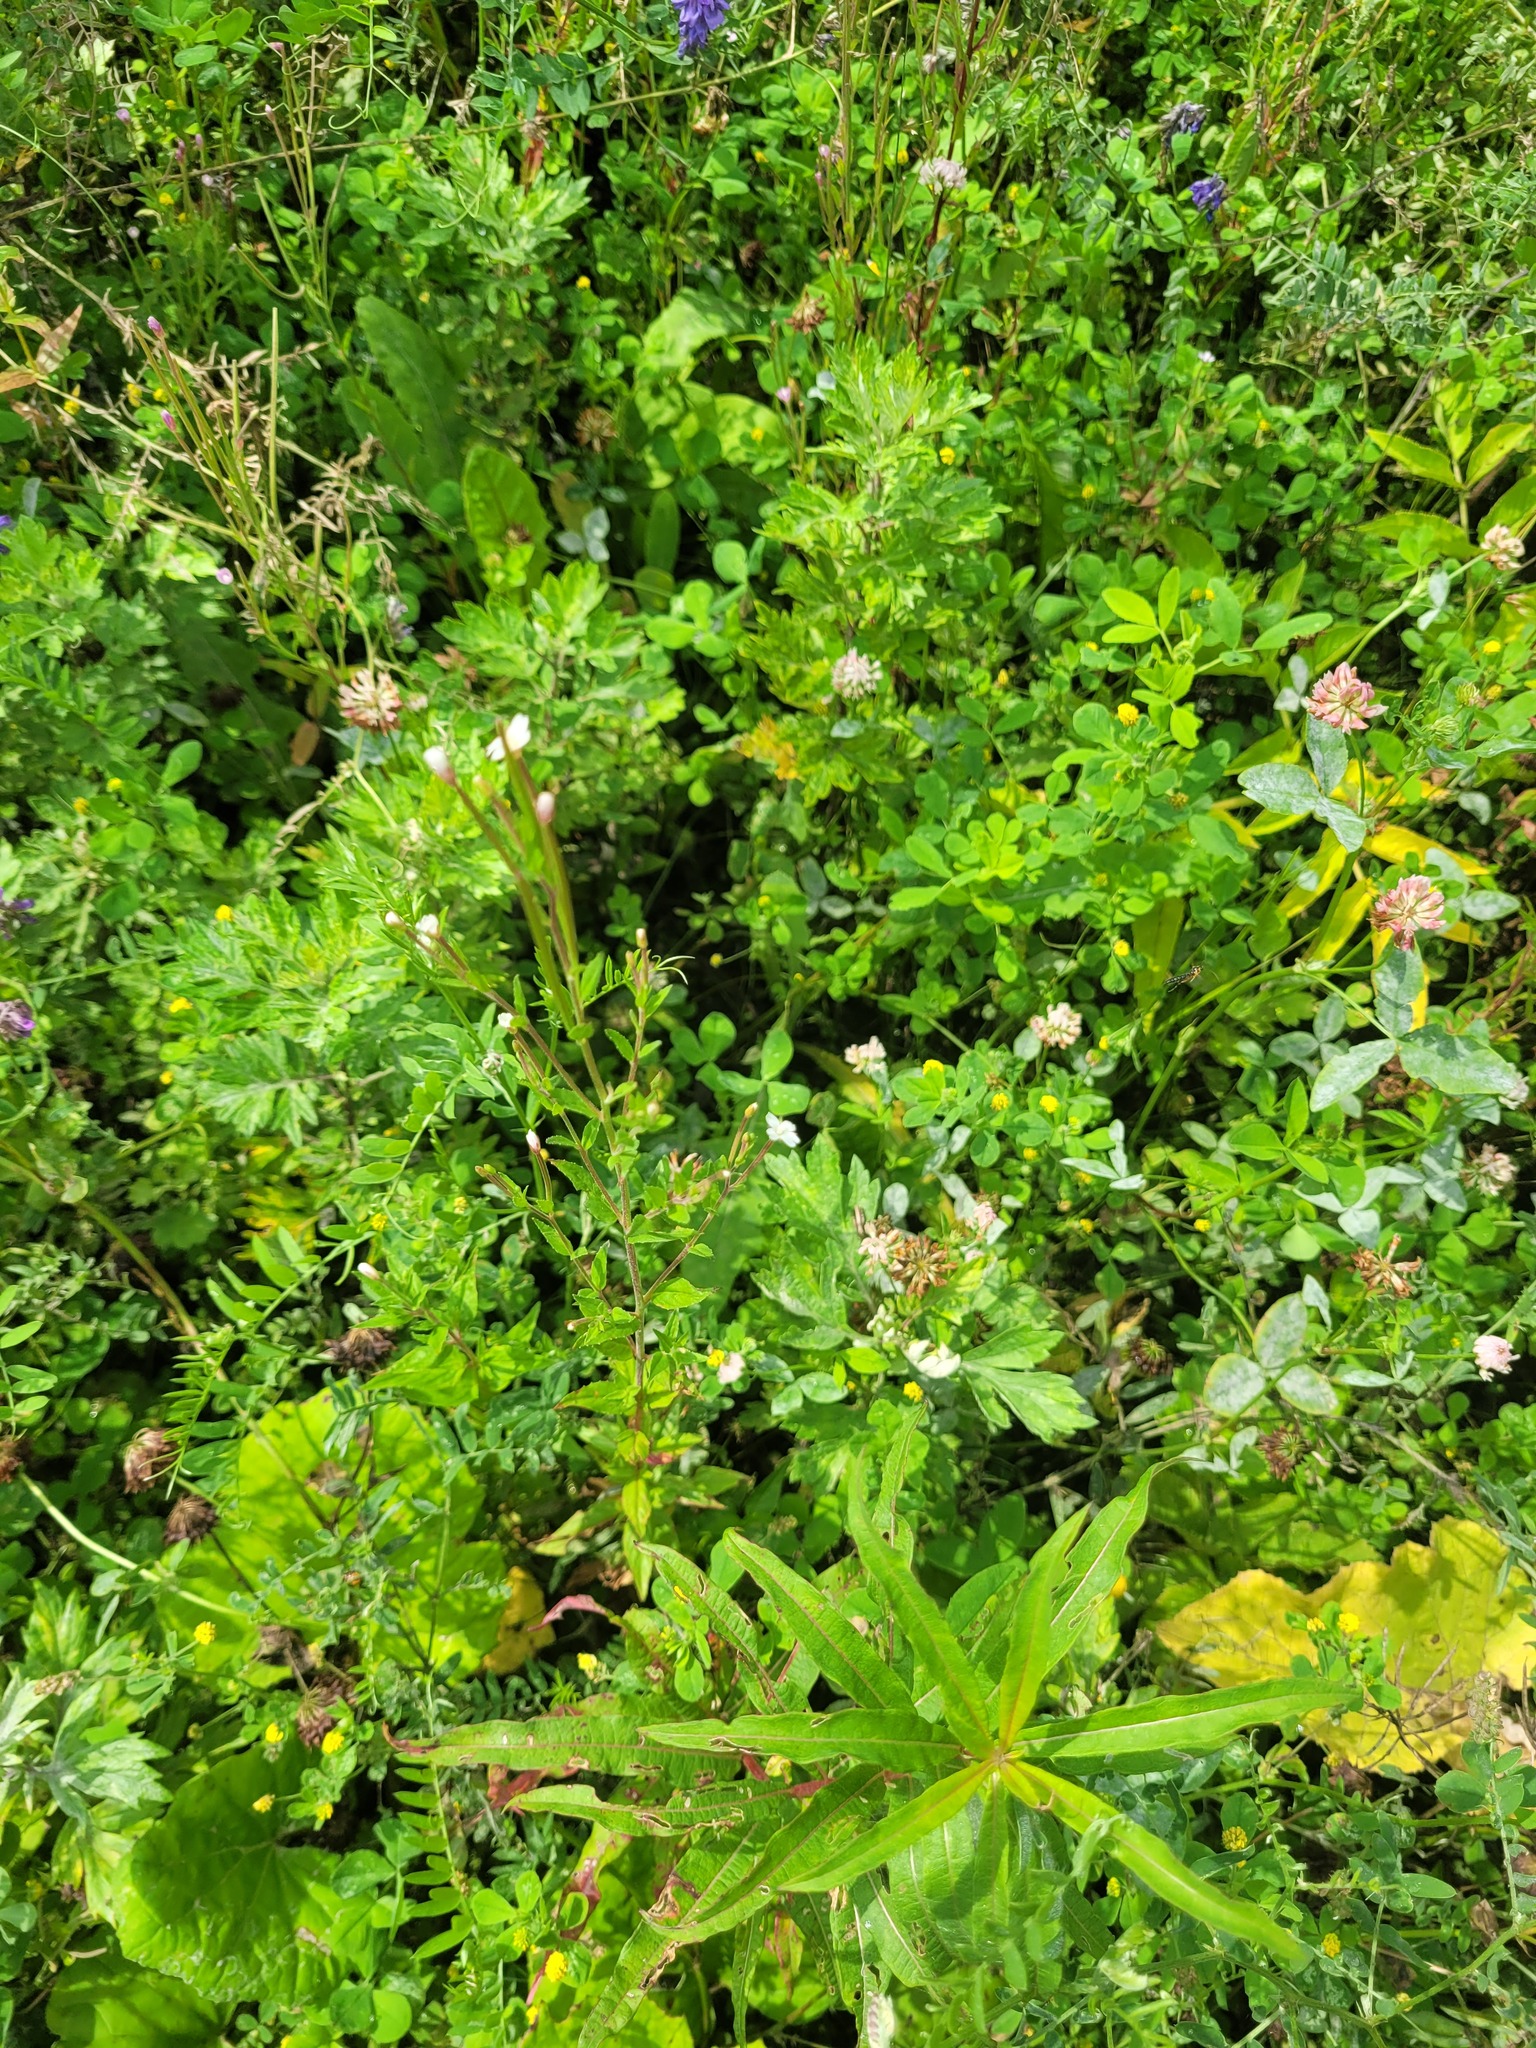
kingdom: Plantae
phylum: Tracheophyta
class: Magnoliopsida
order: Myrtales
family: Onagraceae
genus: Epilobium
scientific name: Epilobium pseudorubescens
